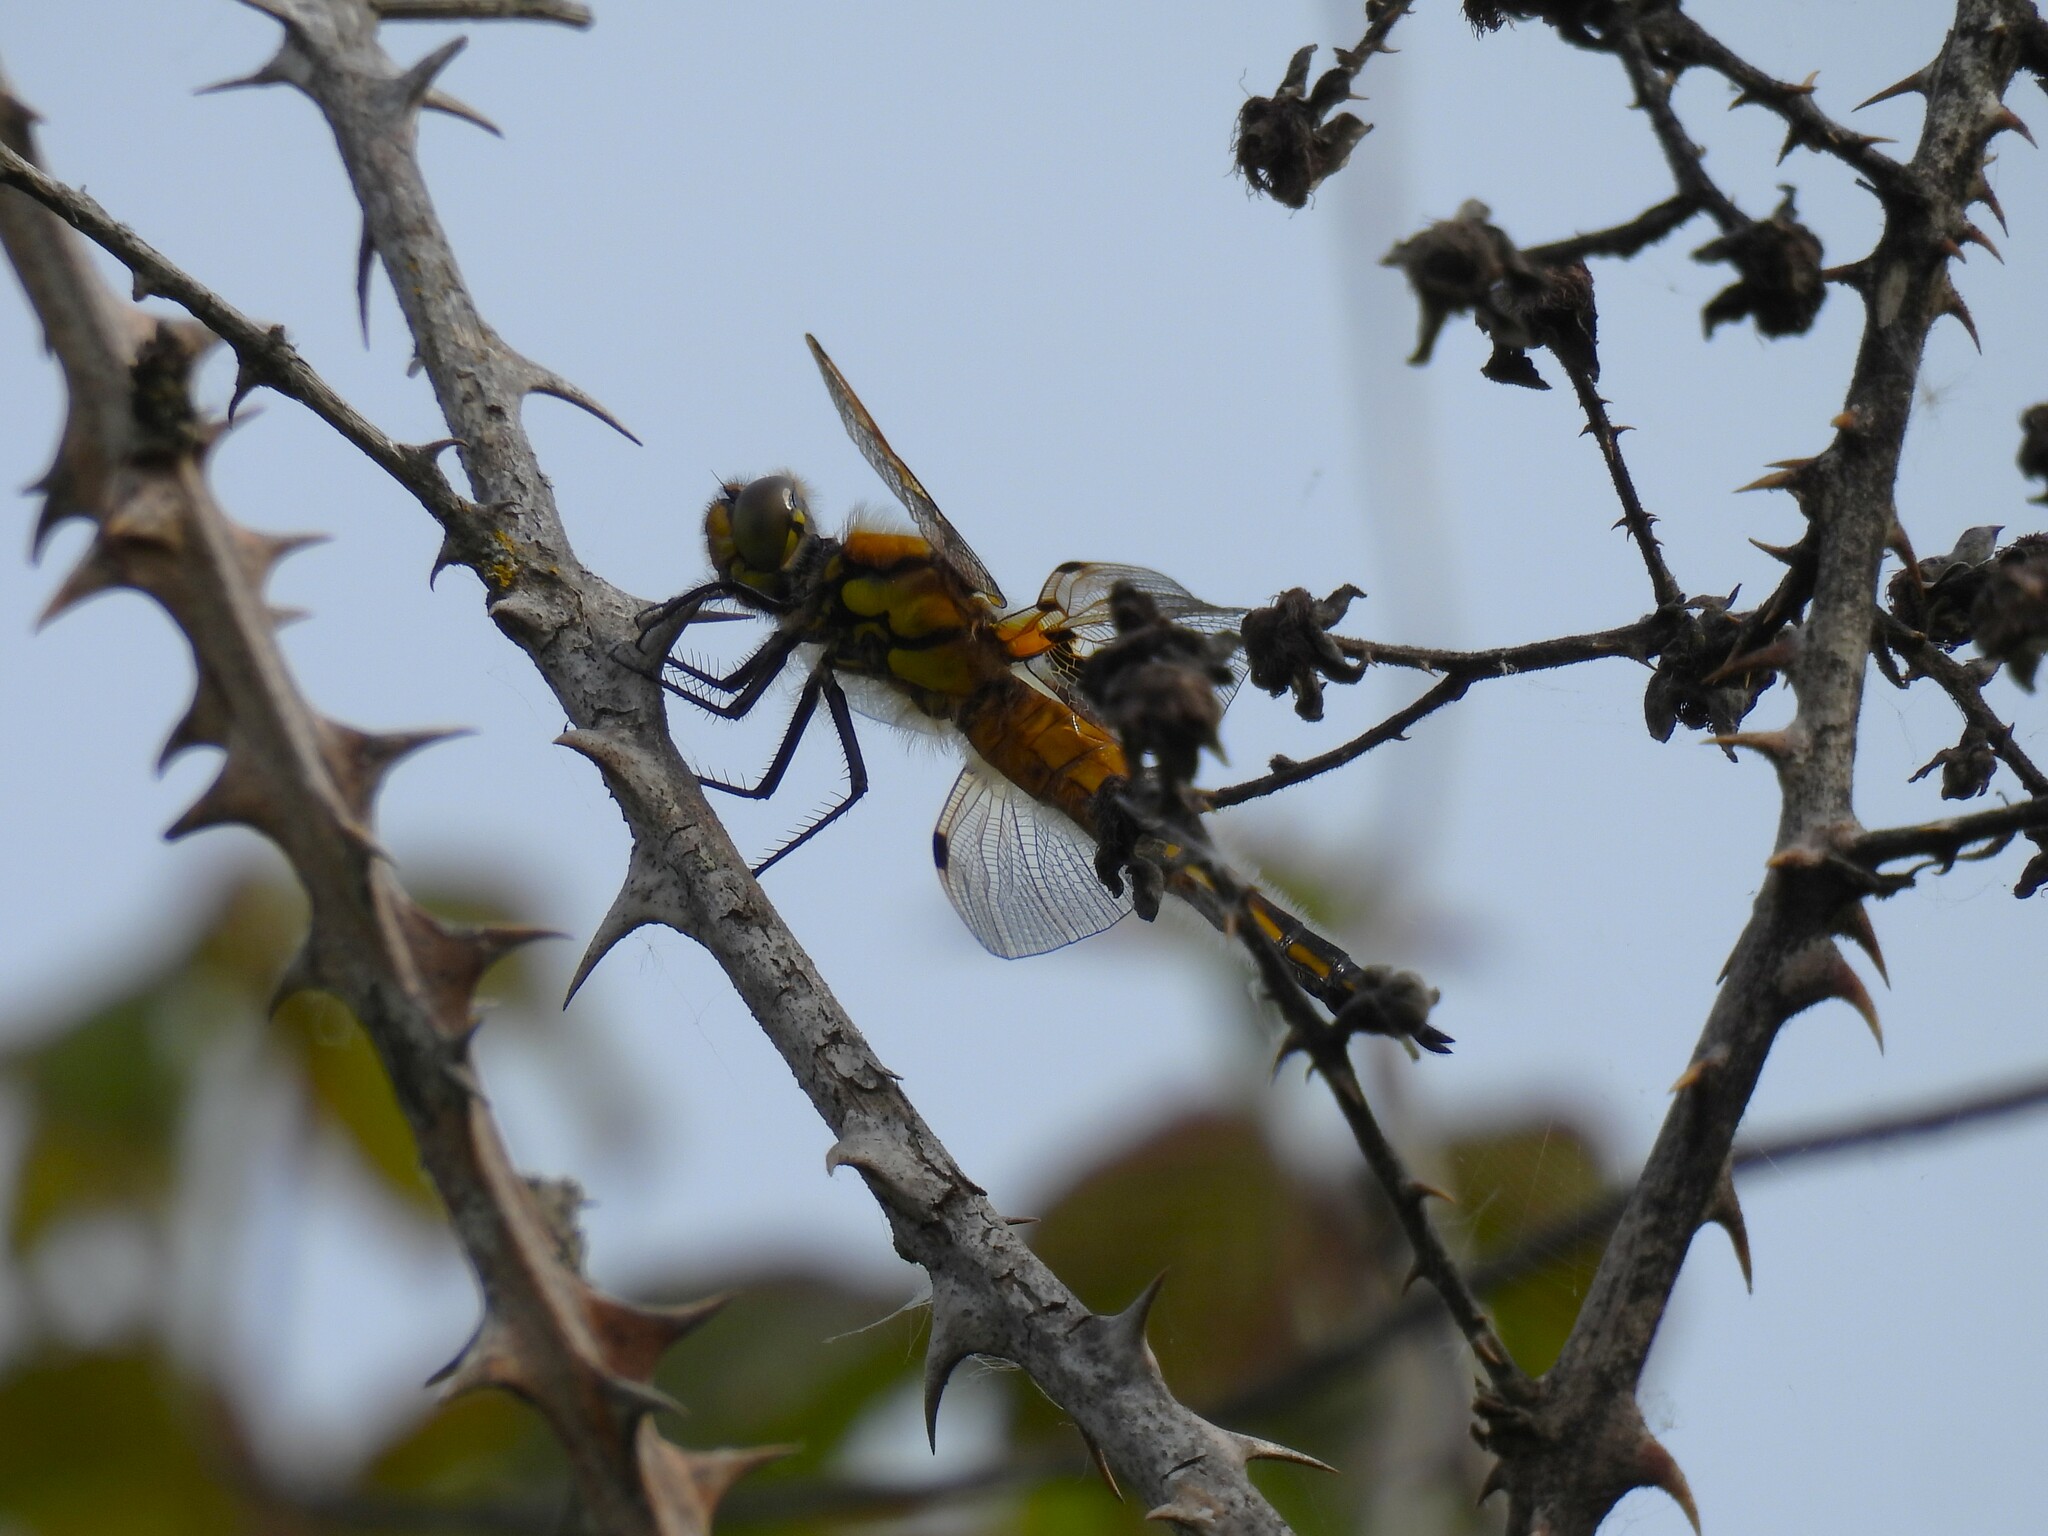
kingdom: Animalia
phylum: Arthropoda
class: Insecta
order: Odonata
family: Libellulidae
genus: Libellula
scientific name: Libellula quadrimaculata
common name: Four-spotted chaser
